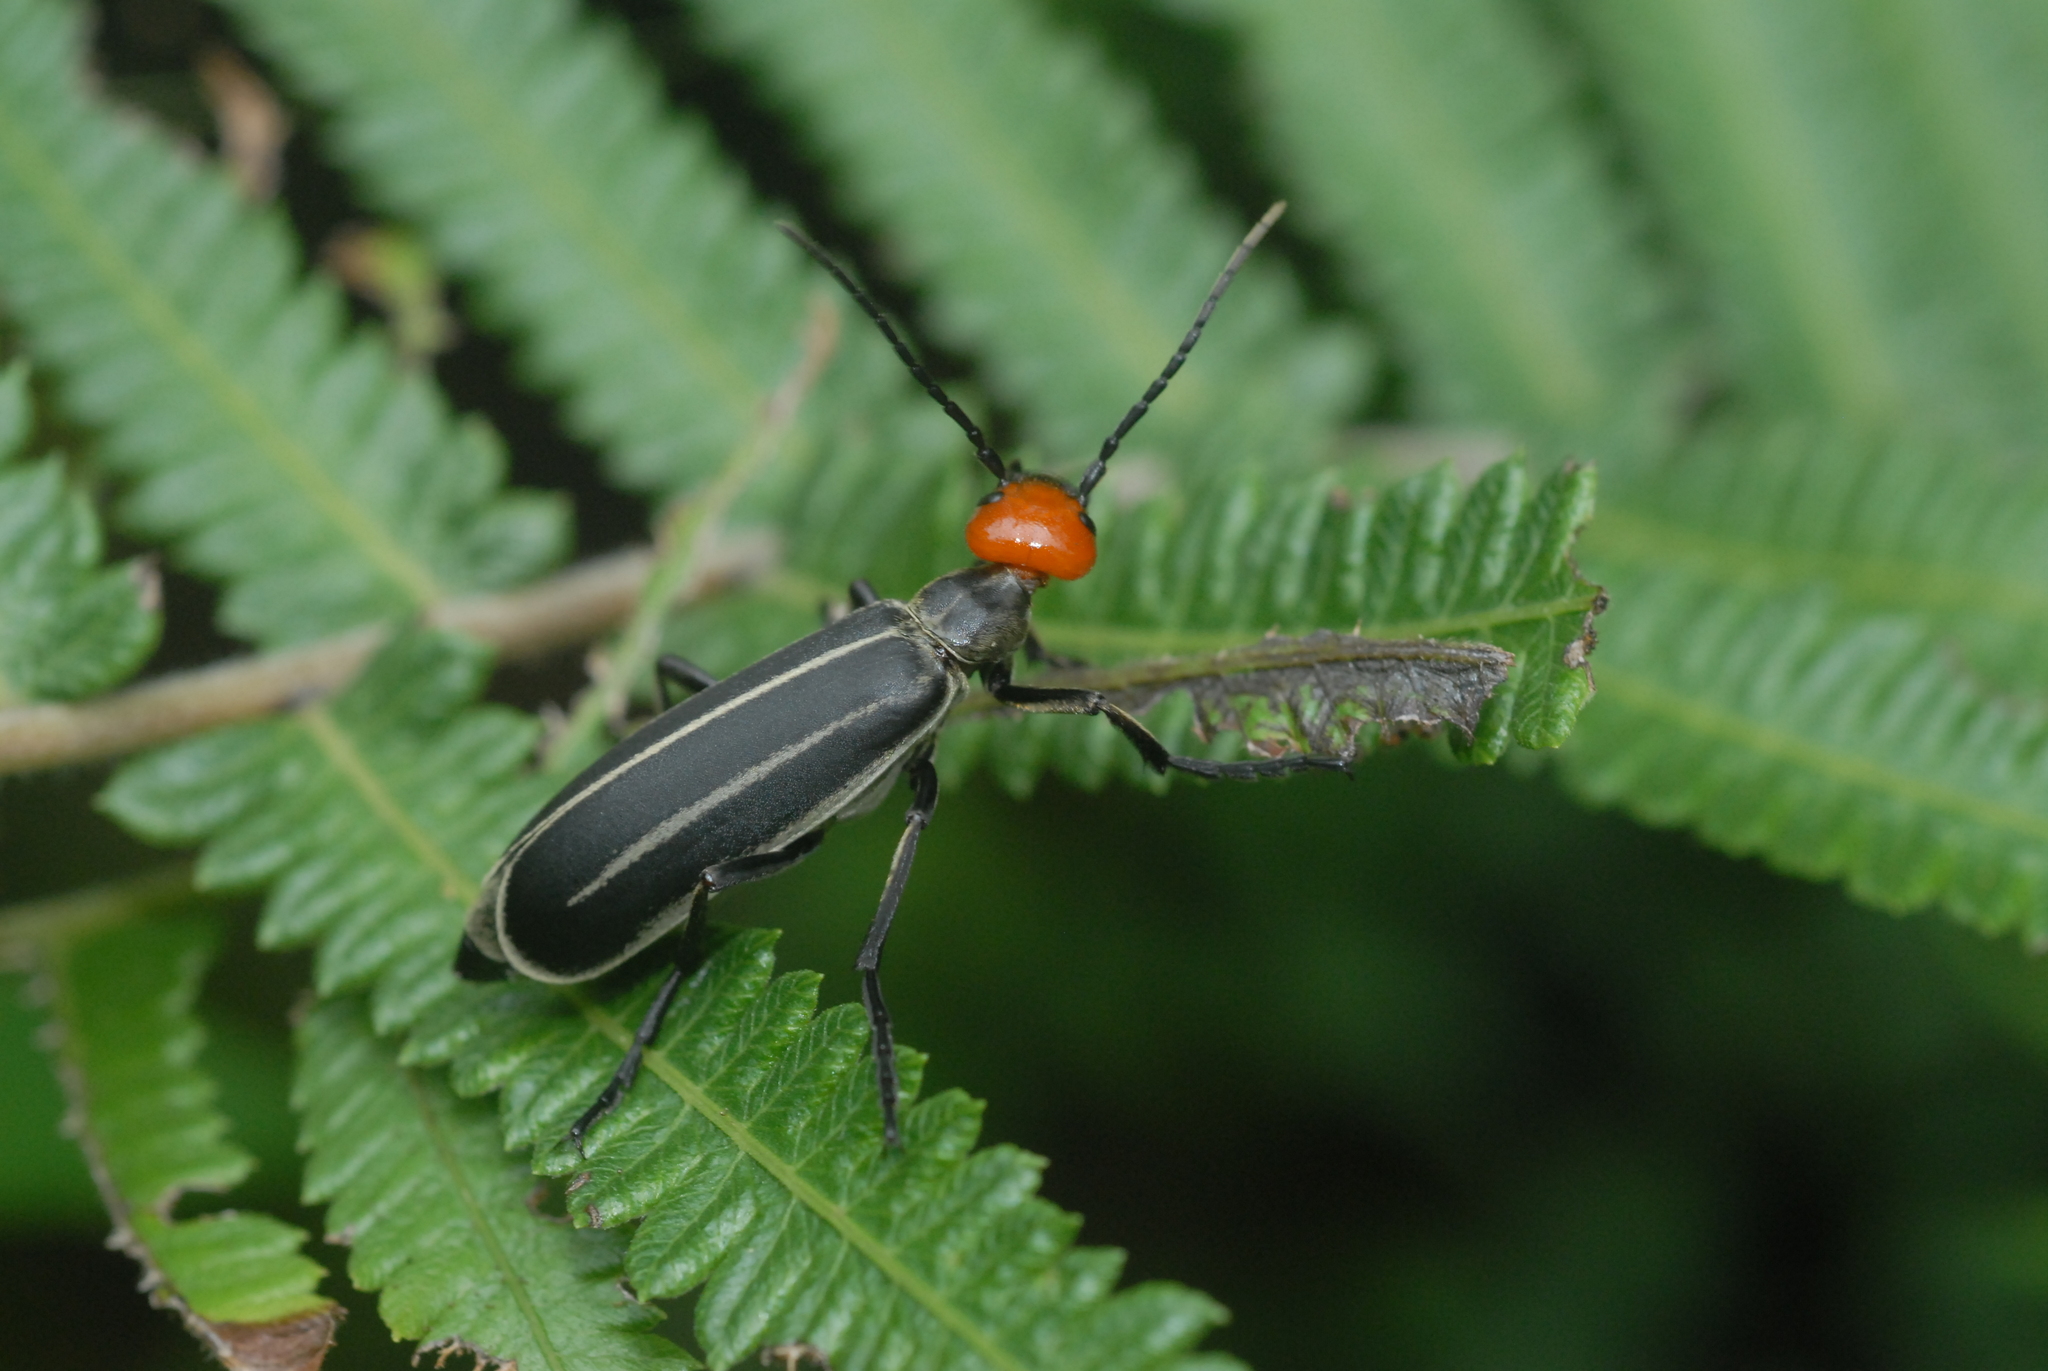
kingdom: Animalia
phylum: Arthropoda
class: Insecta
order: Coleoptera
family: Meloidae
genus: Epicauta
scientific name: Epicauta waterhousei
